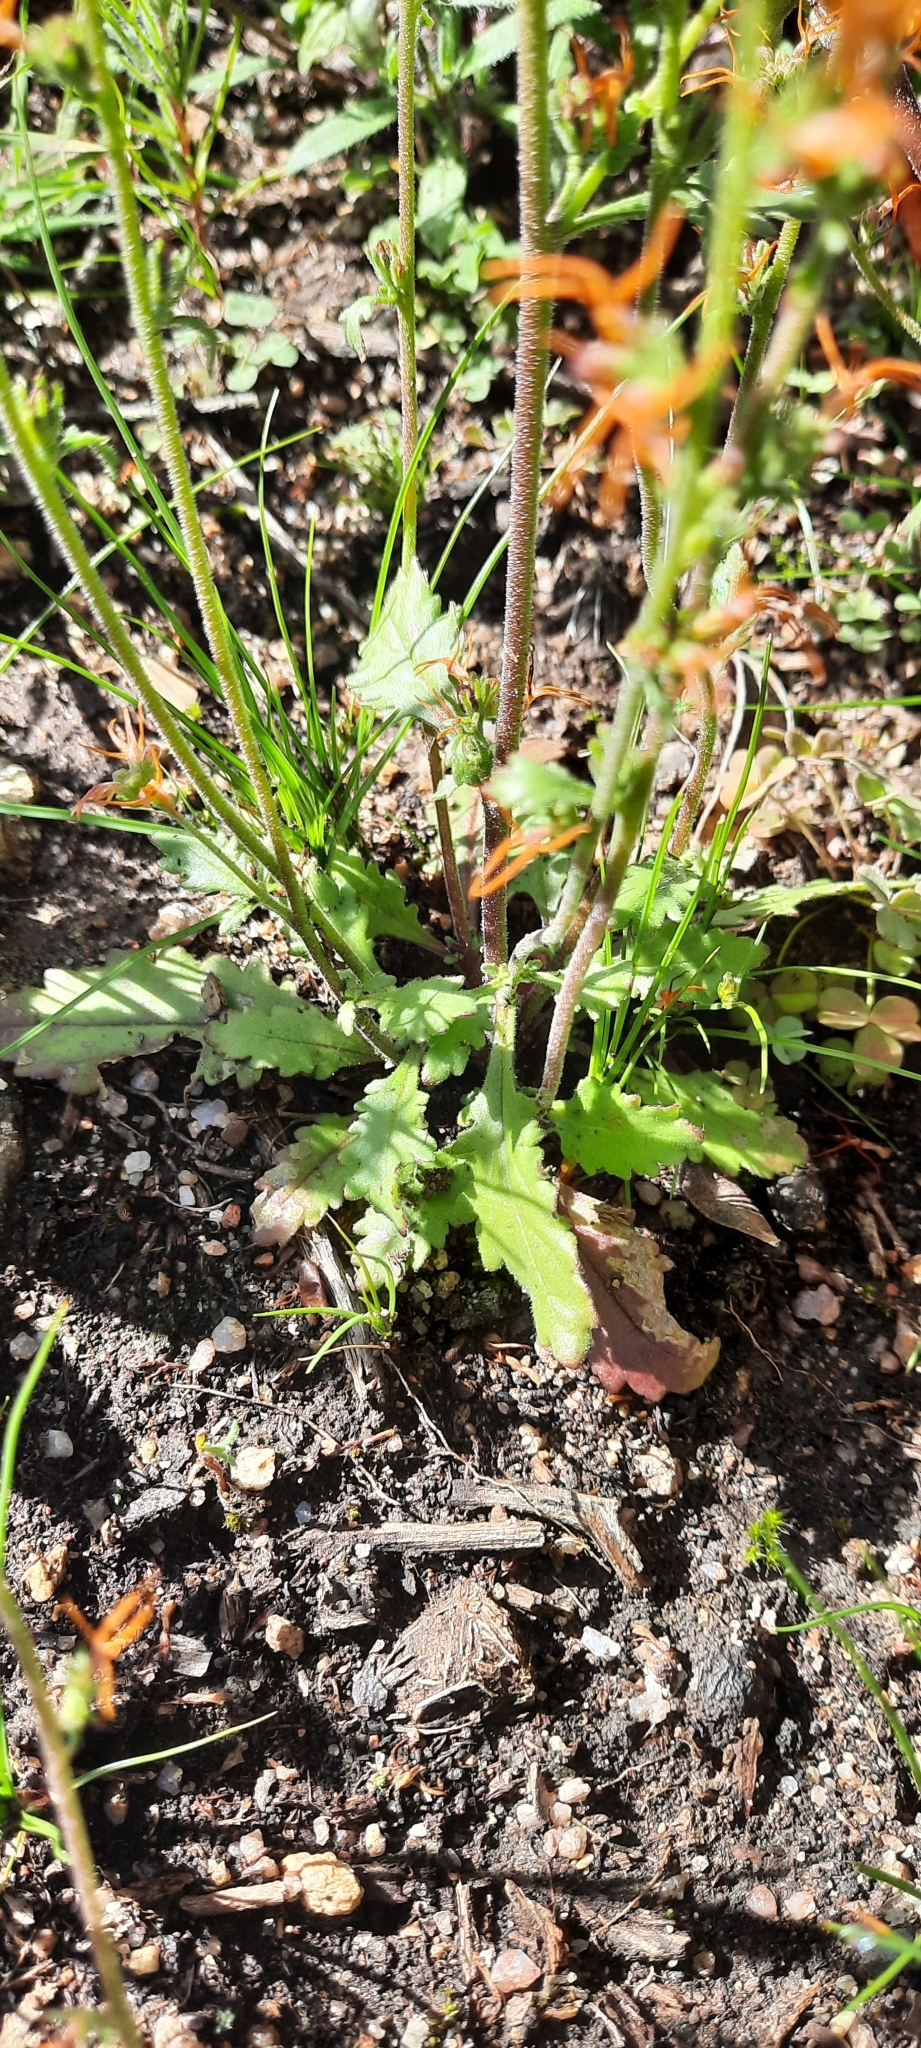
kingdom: Plantae
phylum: Tracheophyta
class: Magnoliopsida
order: Lamiales
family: Scrophulariaceae
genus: Manulea
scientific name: Manulea cheiranthus
